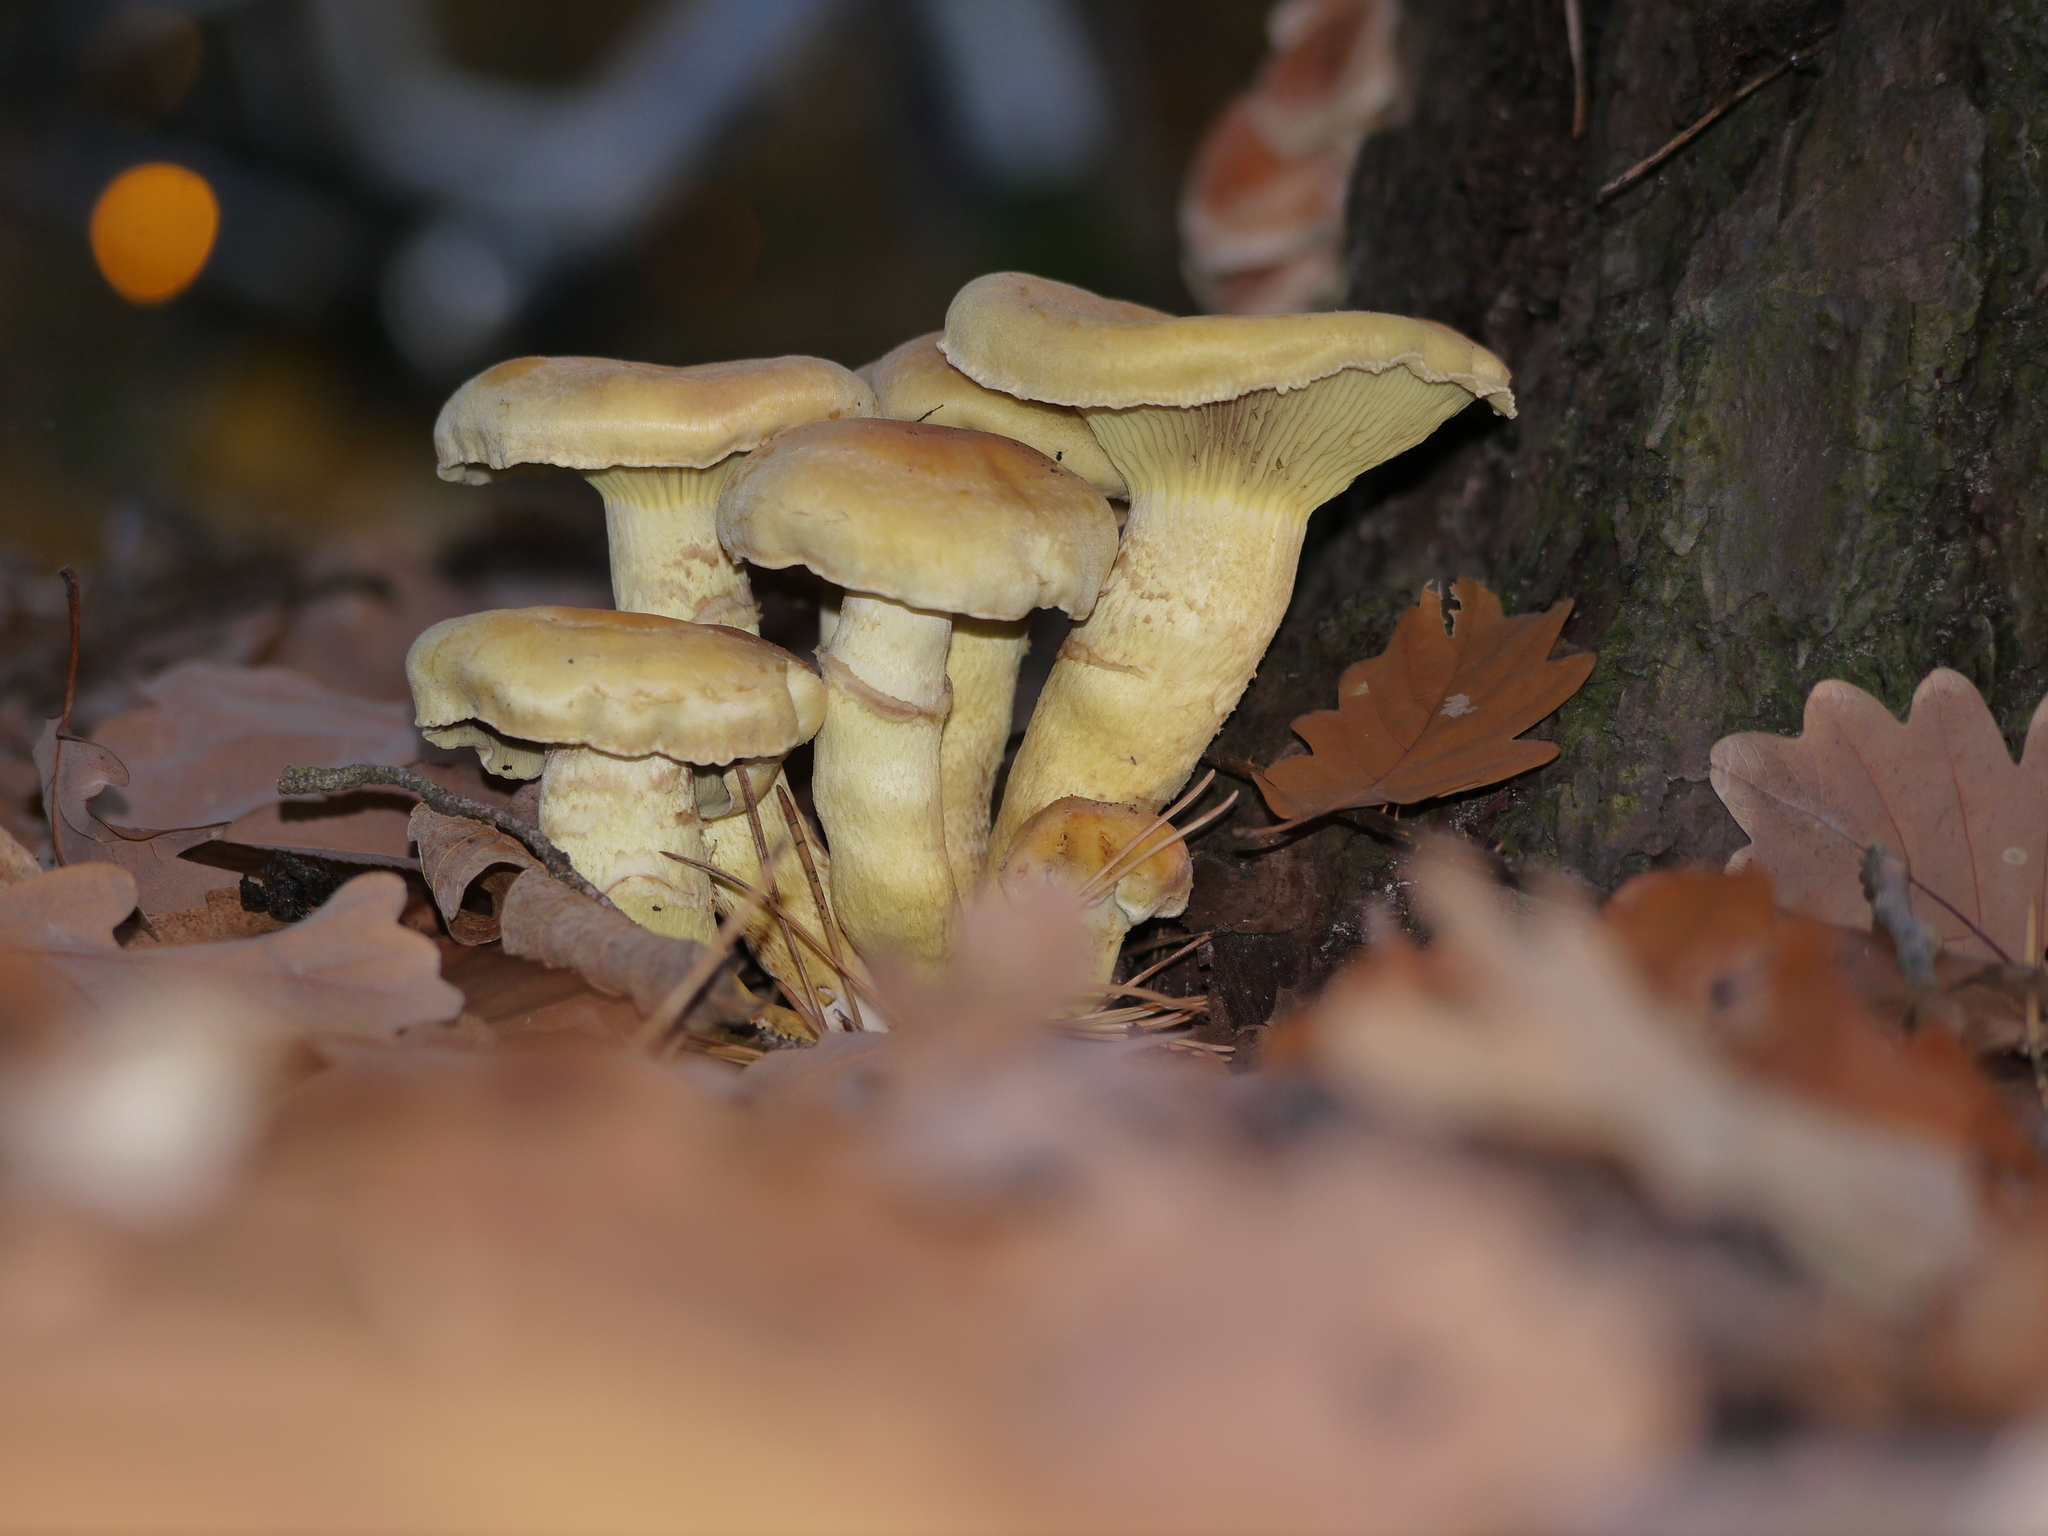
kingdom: Fungi
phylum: Basidiomycota
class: Agaricomycetes
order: Agaricales
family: Strophariaceae
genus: Hypholoma
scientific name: Hypholoma fasciculare
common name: Sulphur tuft
